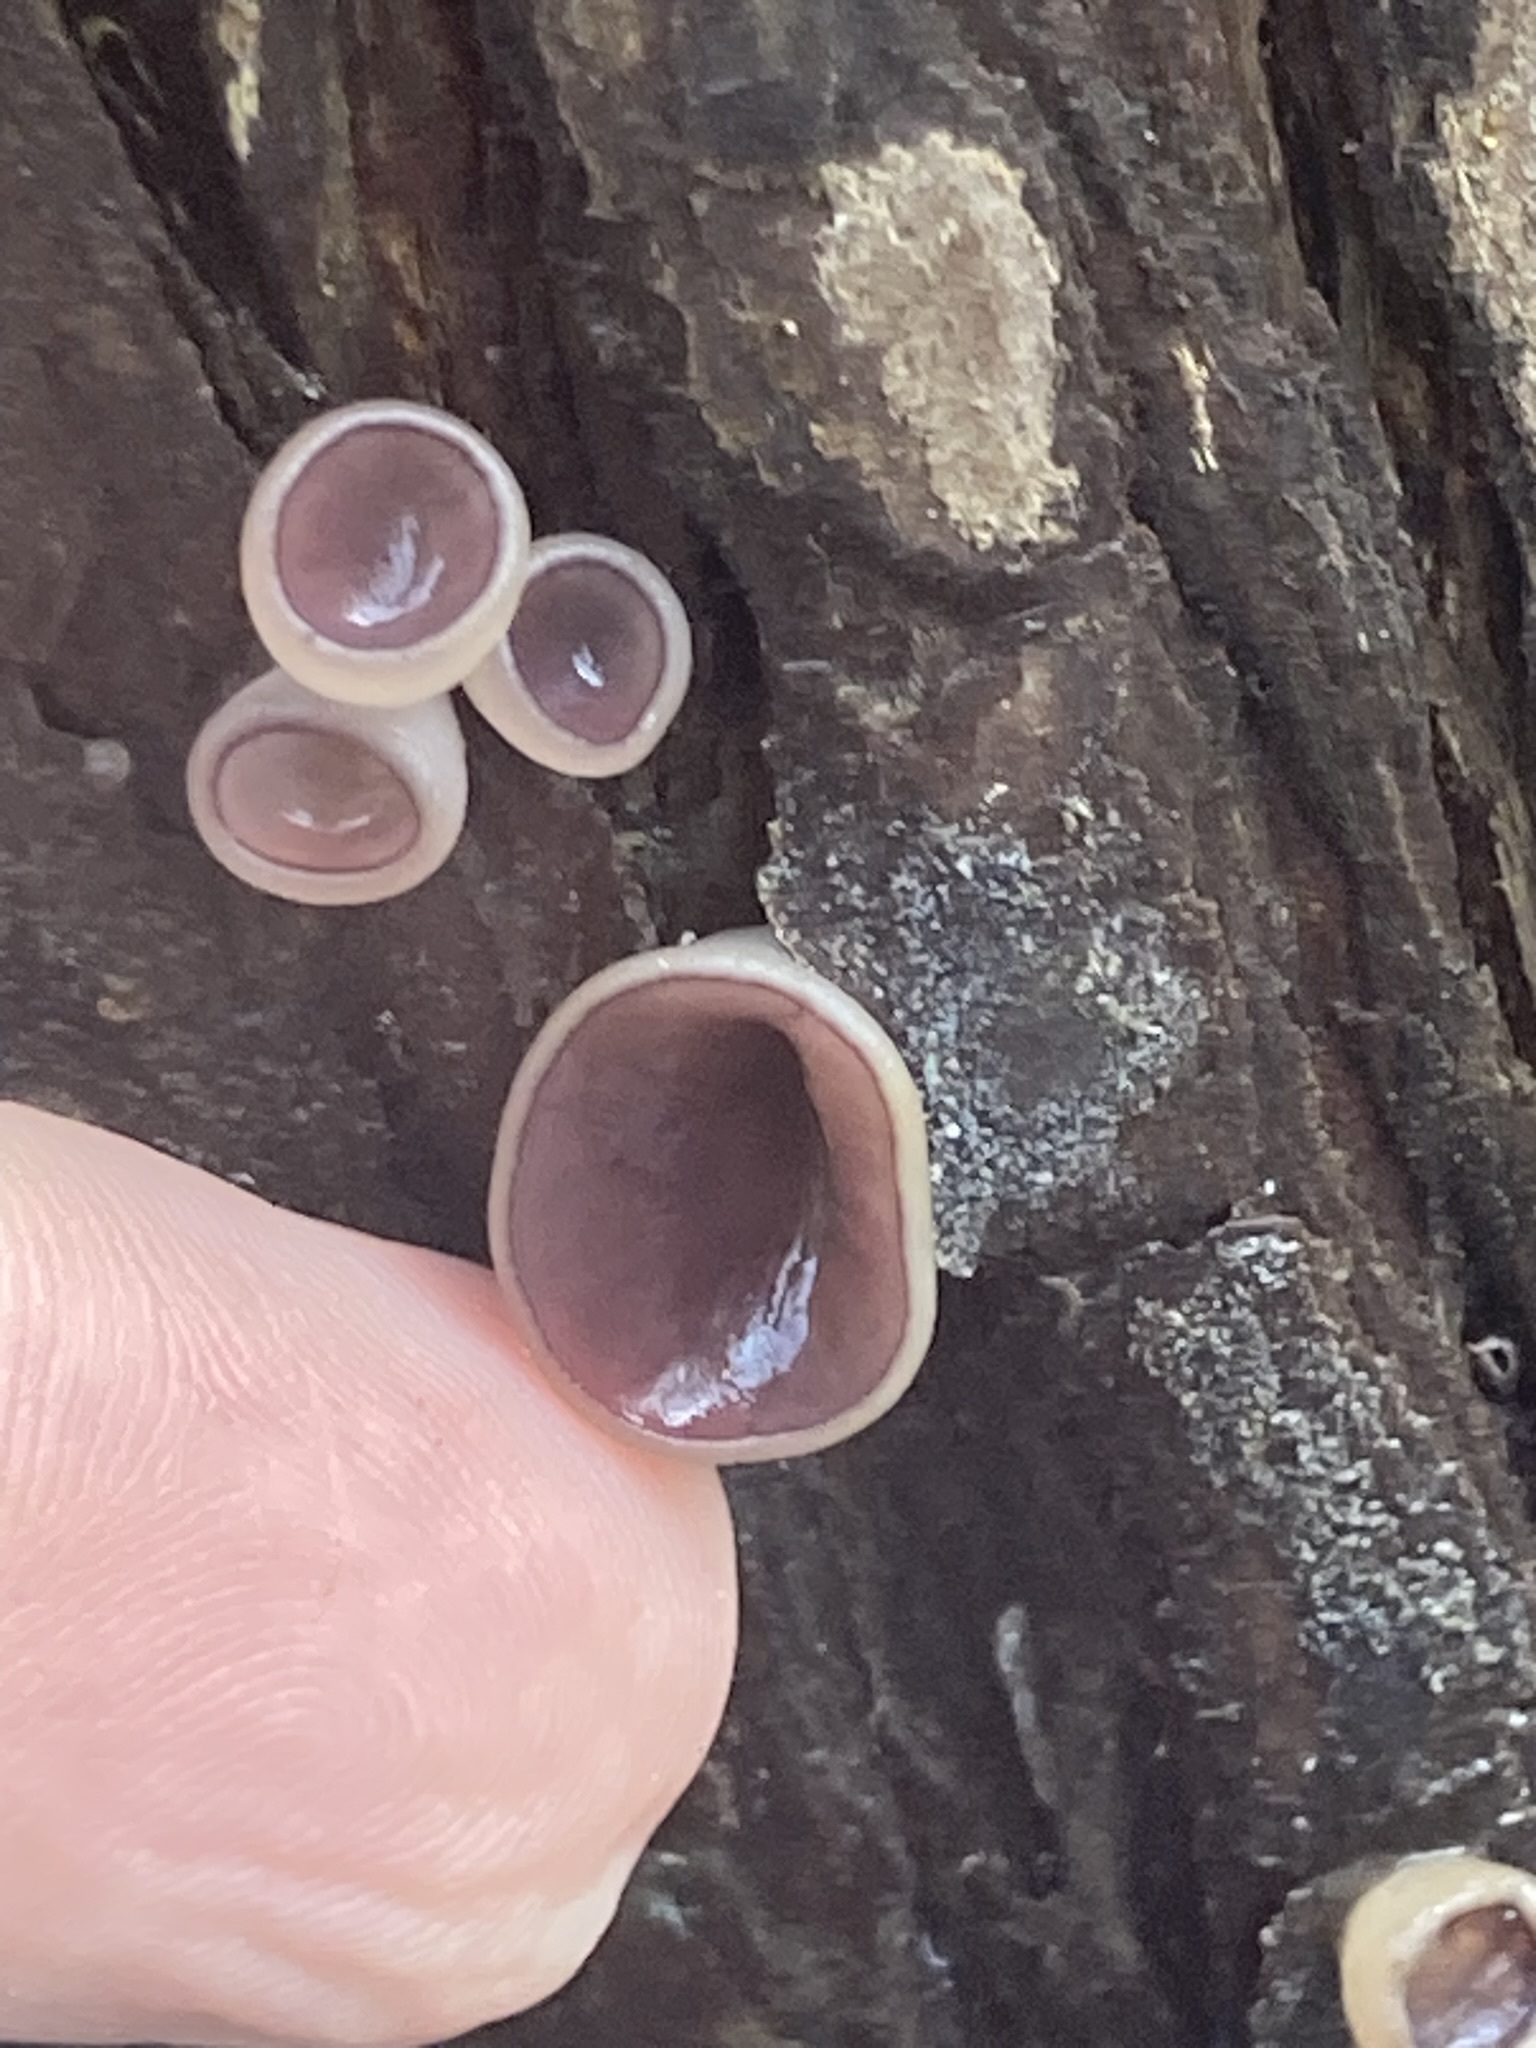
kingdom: Fungi
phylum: Ascomycota
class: Pezizomycetes
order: Pezizales
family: Pezizaceae
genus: Geoscypha
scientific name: Geoscypha violacea
